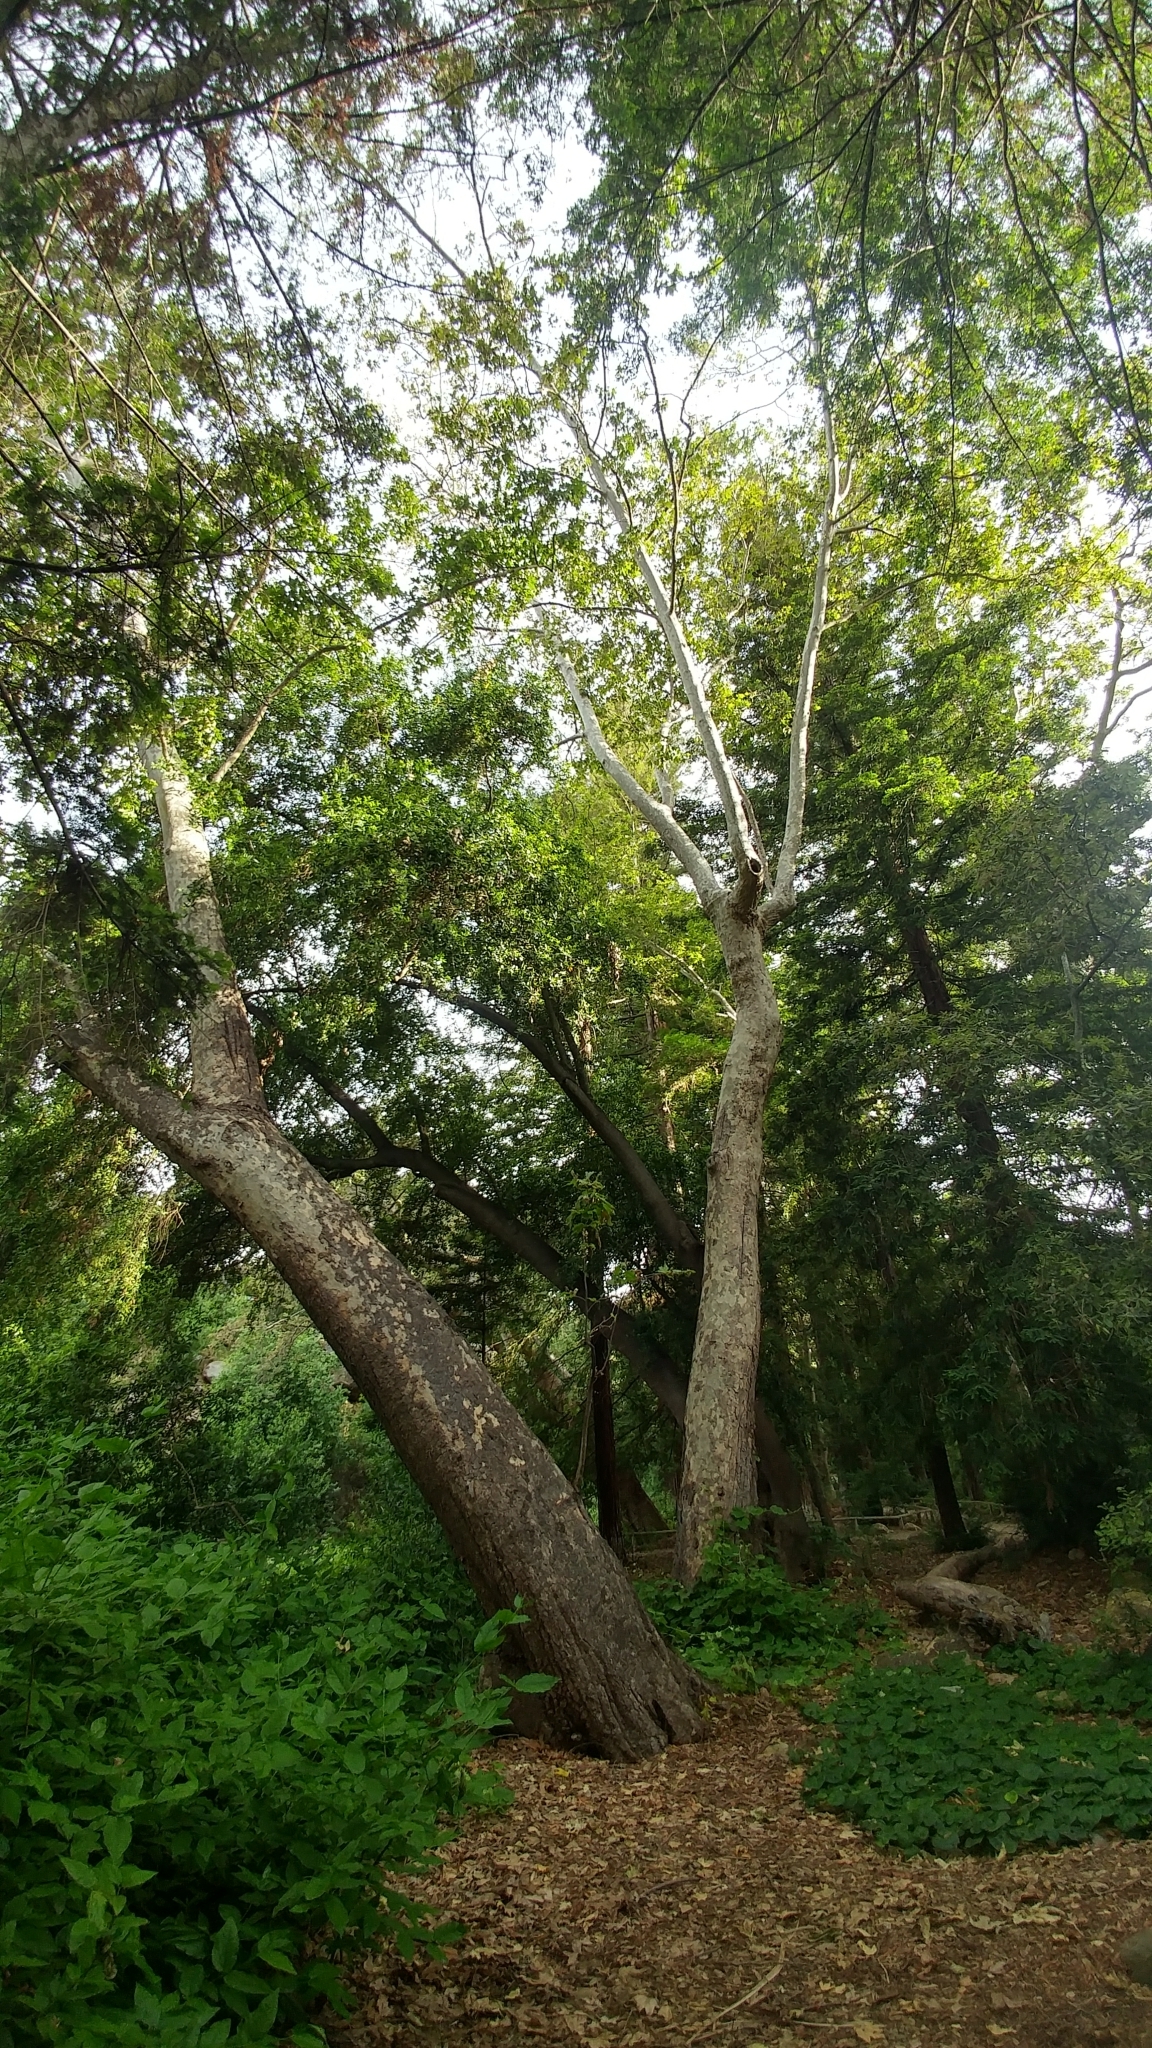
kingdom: Plantae
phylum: Tracheophyta
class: Magnoliopsida
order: Proteales
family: Platanaceae
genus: Platanus
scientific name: Platanus racemosa
